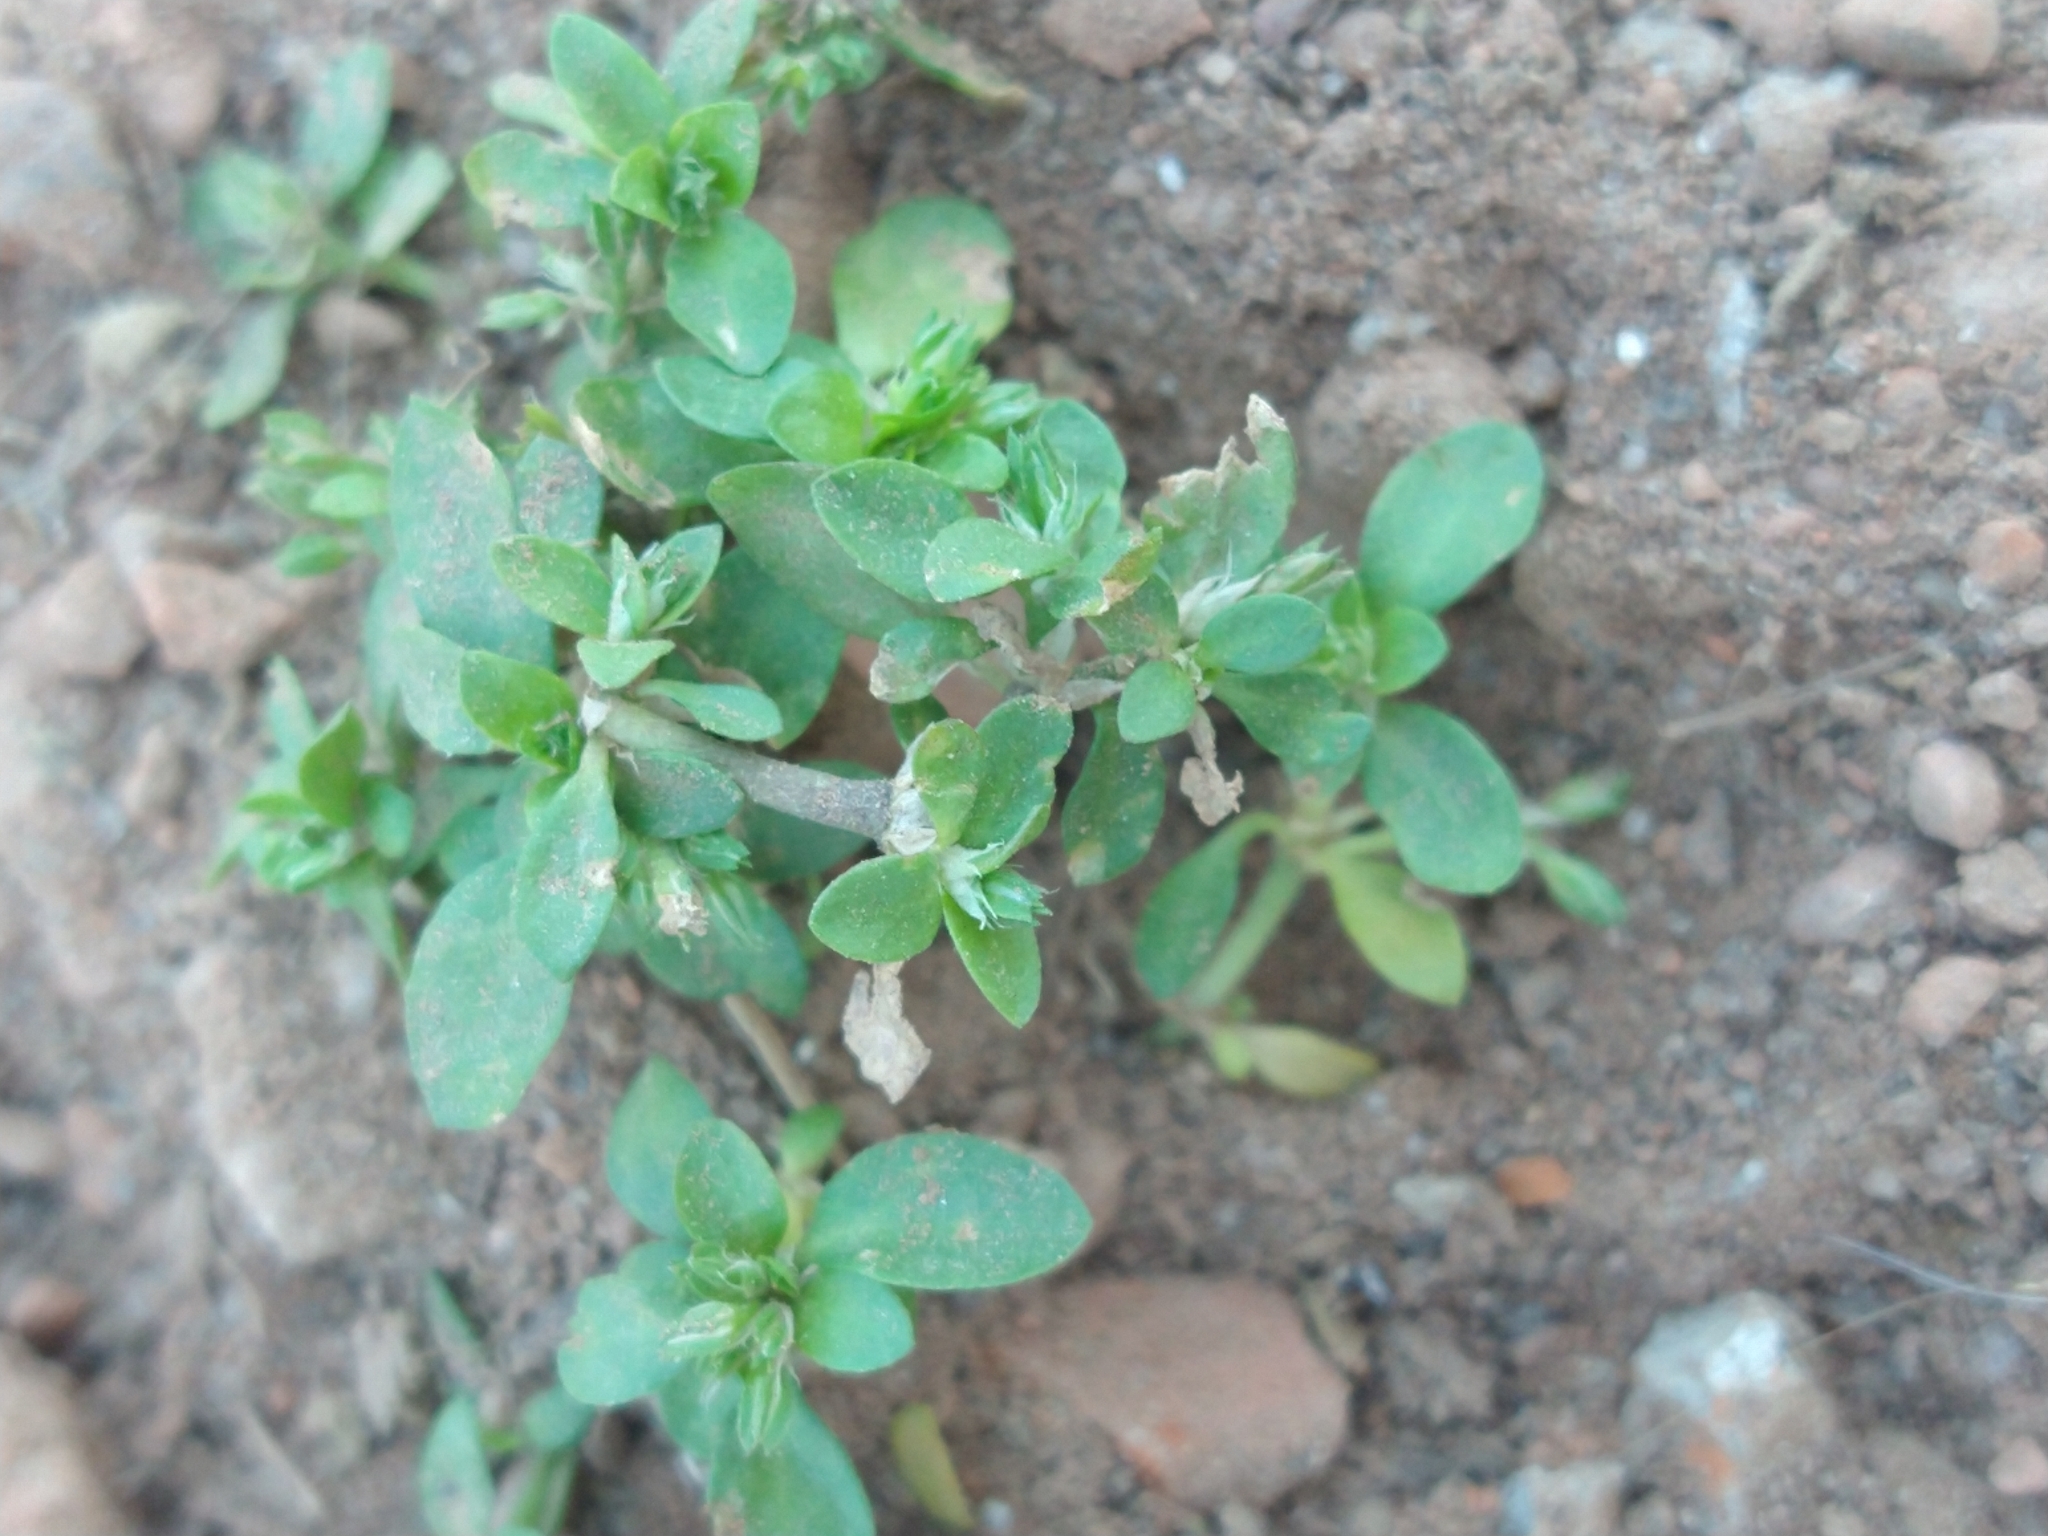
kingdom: Plantae
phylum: Tracheophyta
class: Magnoliopsida
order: Caryophyllales
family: Caryophyllaceae
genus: Polycarpon
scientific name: Polycarpon tetraphyllum
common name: Four-leaved all-seed
